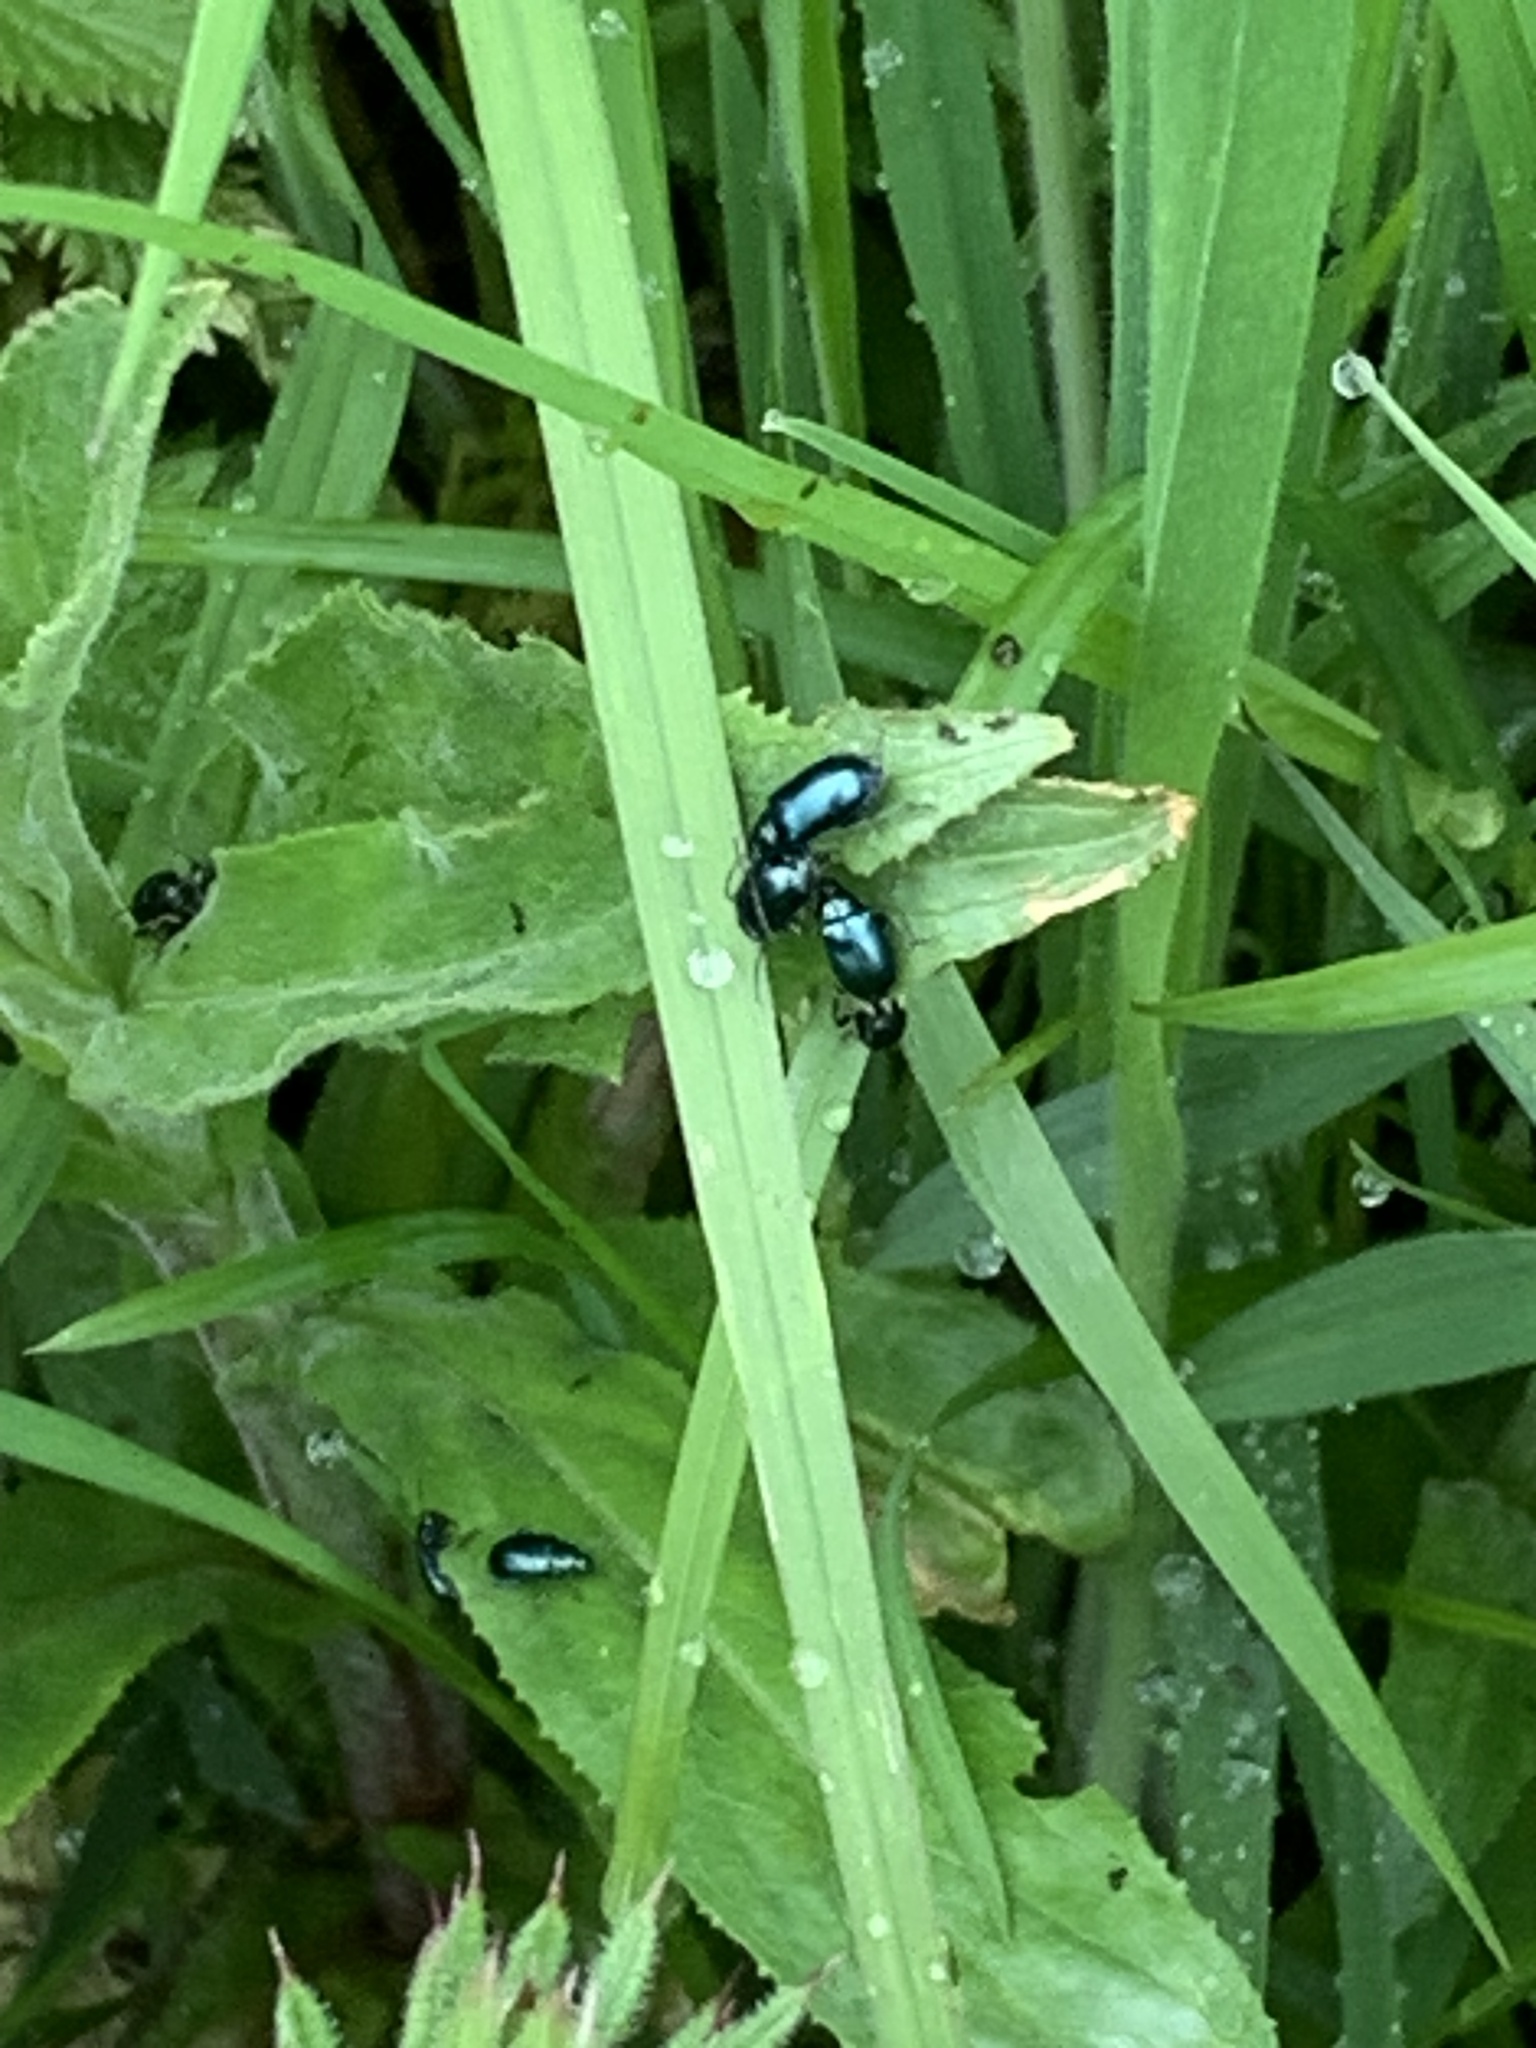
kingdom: Animalia
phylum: Arthropoda
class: Insecta
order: Coleoptera
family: Chrysomelidae
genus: Agelastica
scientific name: Agelastica alni
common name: Alder leaf beetle
